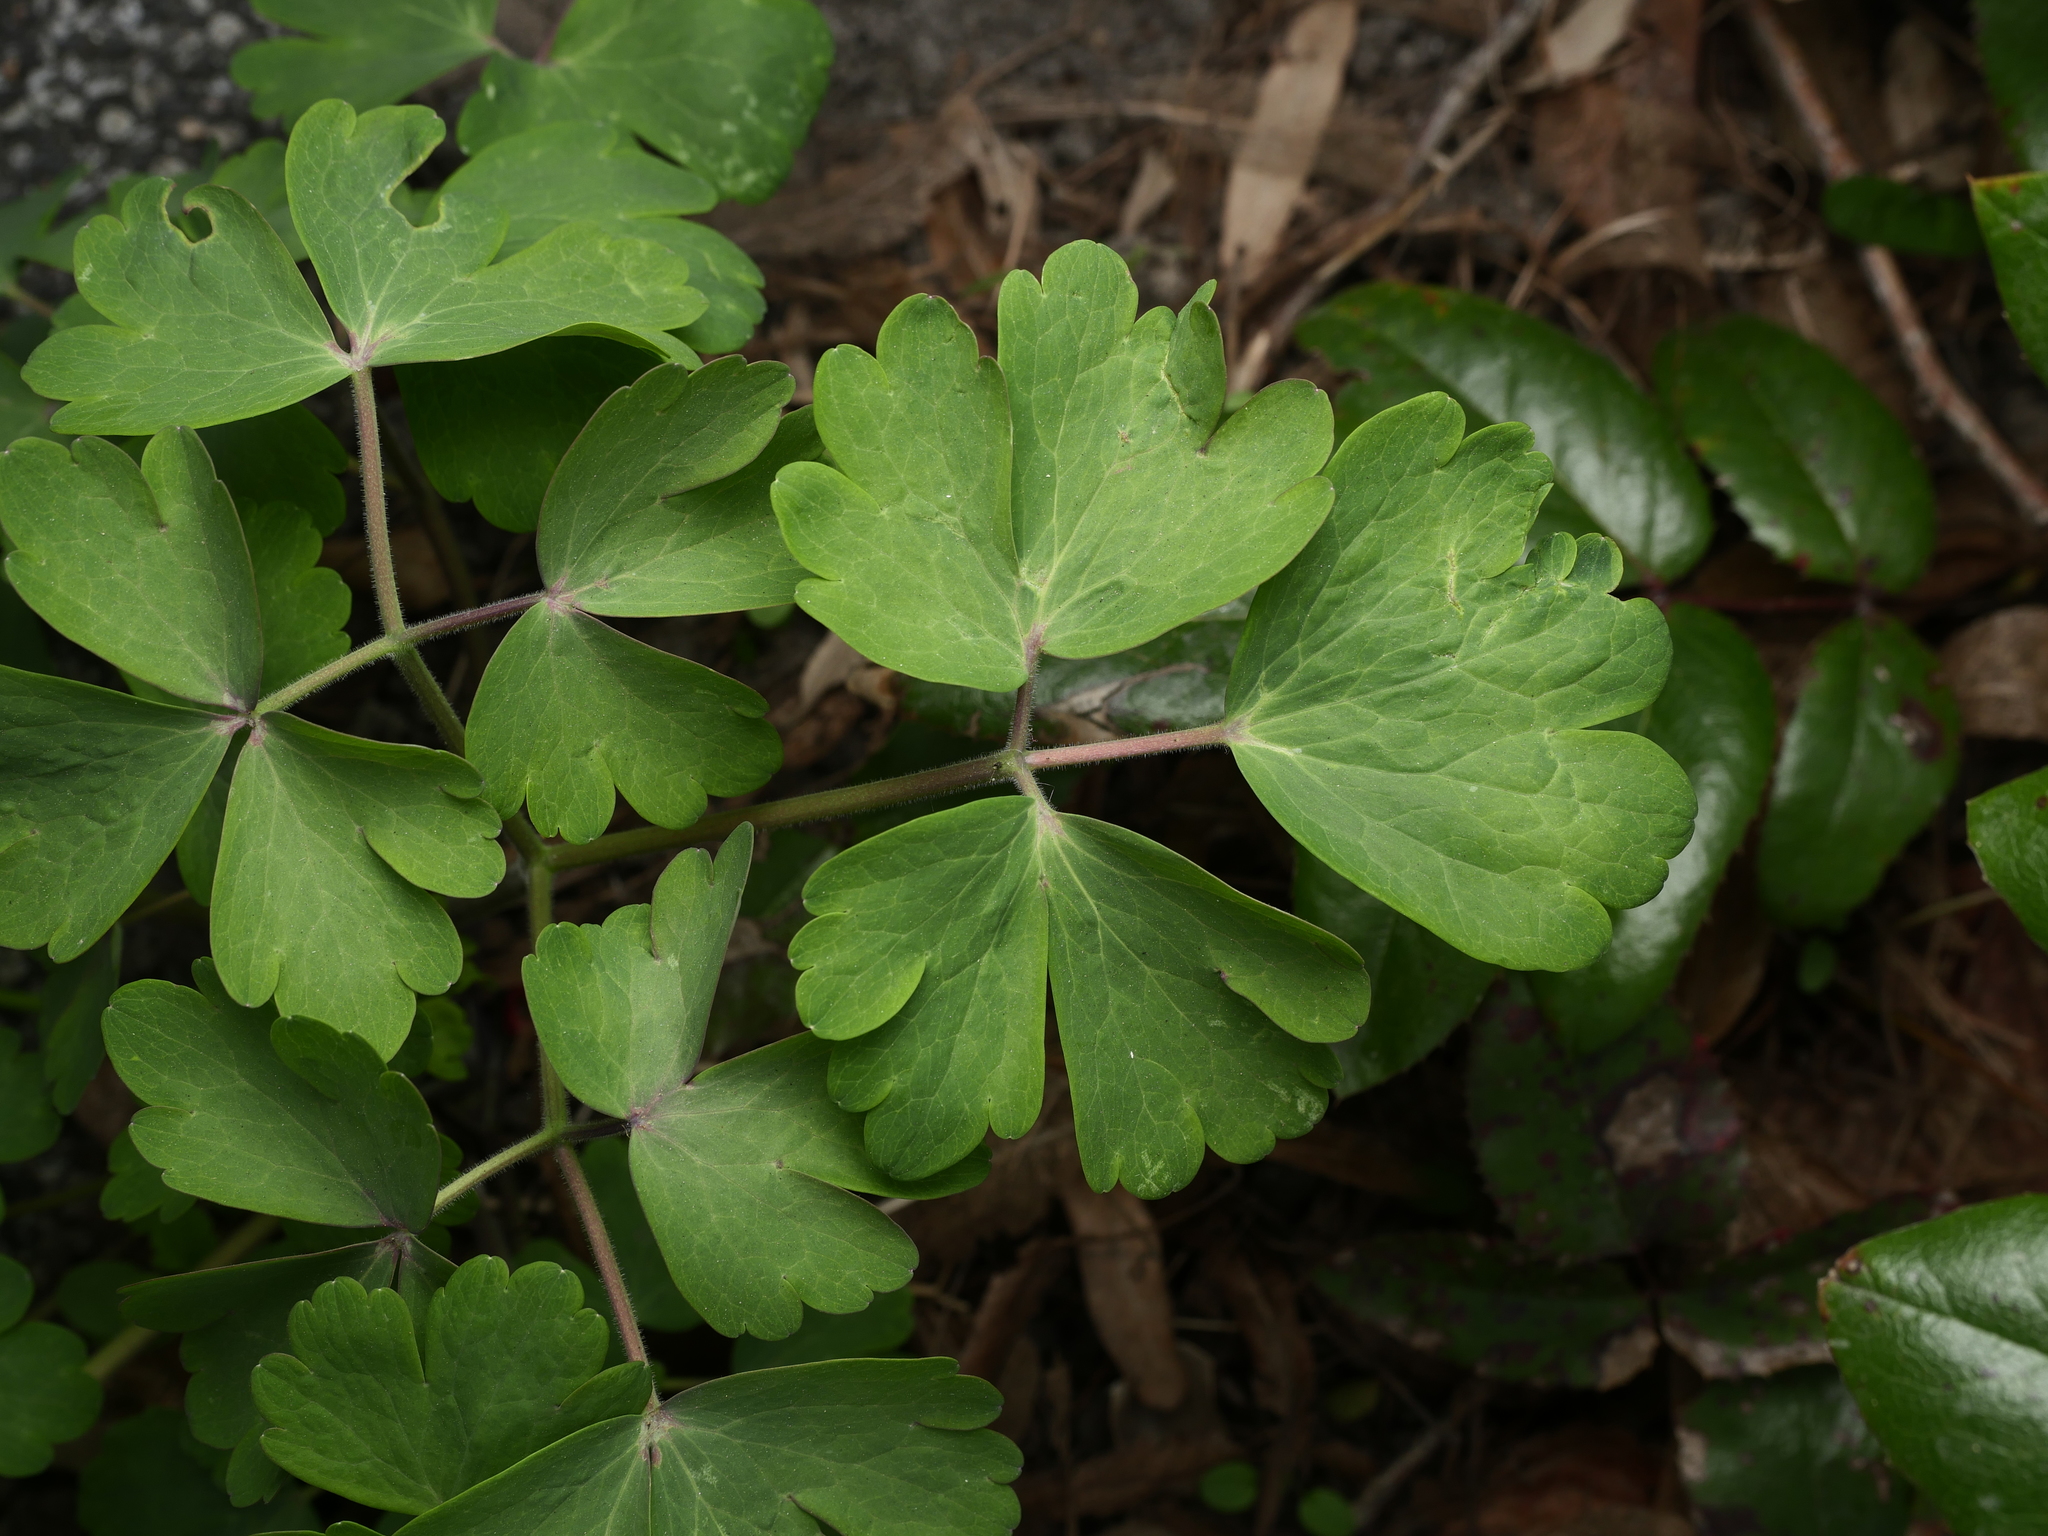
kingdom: Plantae
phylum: Tracheophyta
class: Magnoliopsida
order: Ranunculales
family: Ranunculaceae
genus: Aquilegia
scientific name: Aquilegia vulgaris
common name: Columbine
